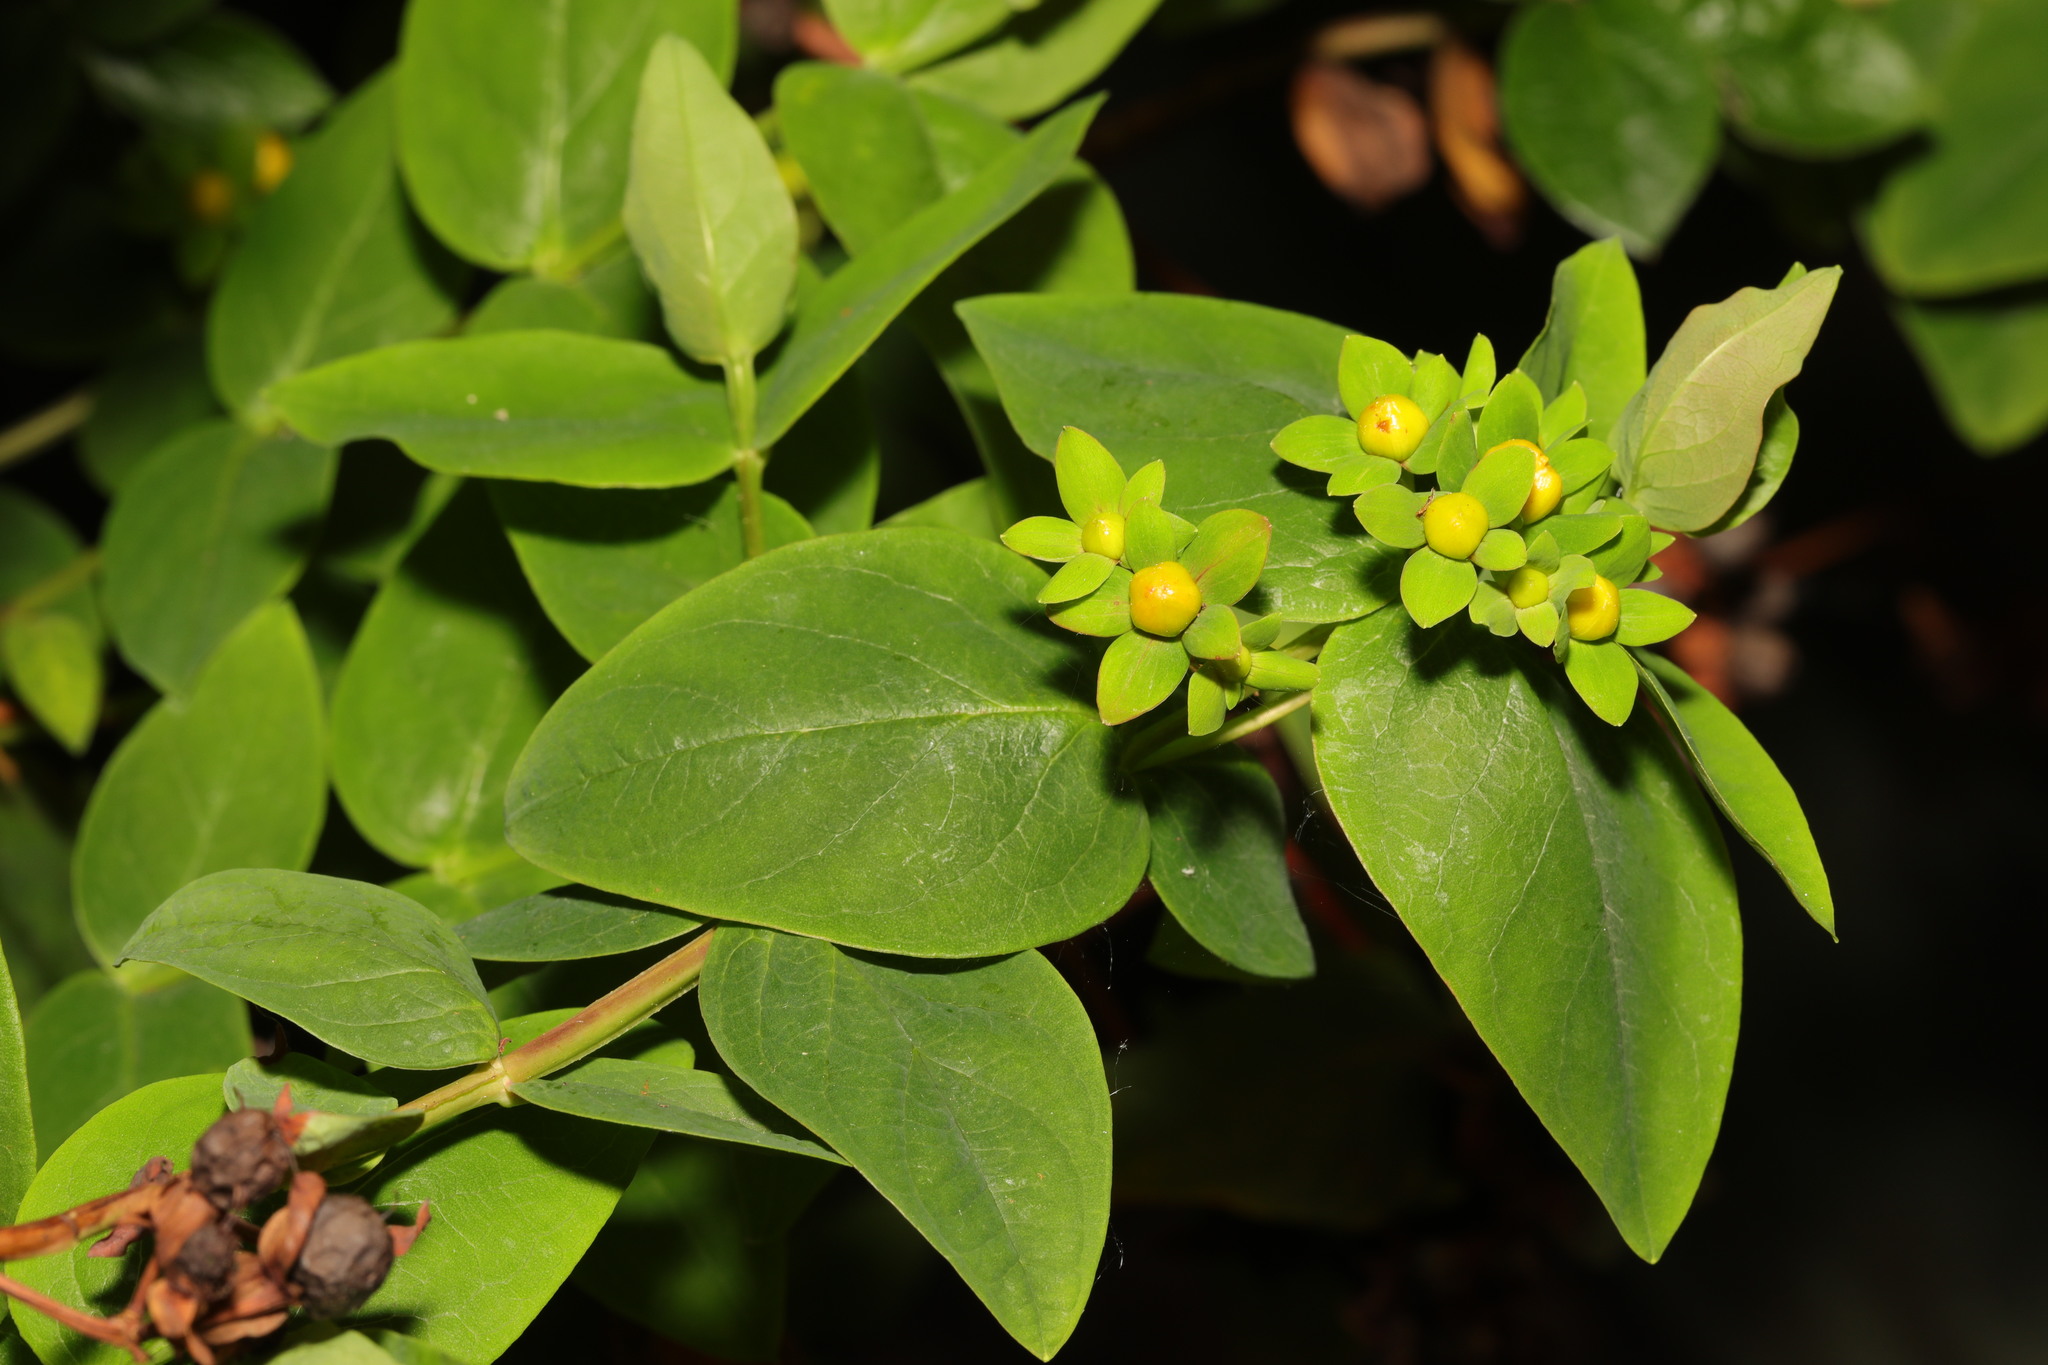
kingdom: Plantae
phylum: Tracheophyta
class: Magnoliopsida
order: Malpighiales
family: Hypericaceae
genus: Hypericum
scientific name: Hypericum androsaemum
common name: Sweet-amber
